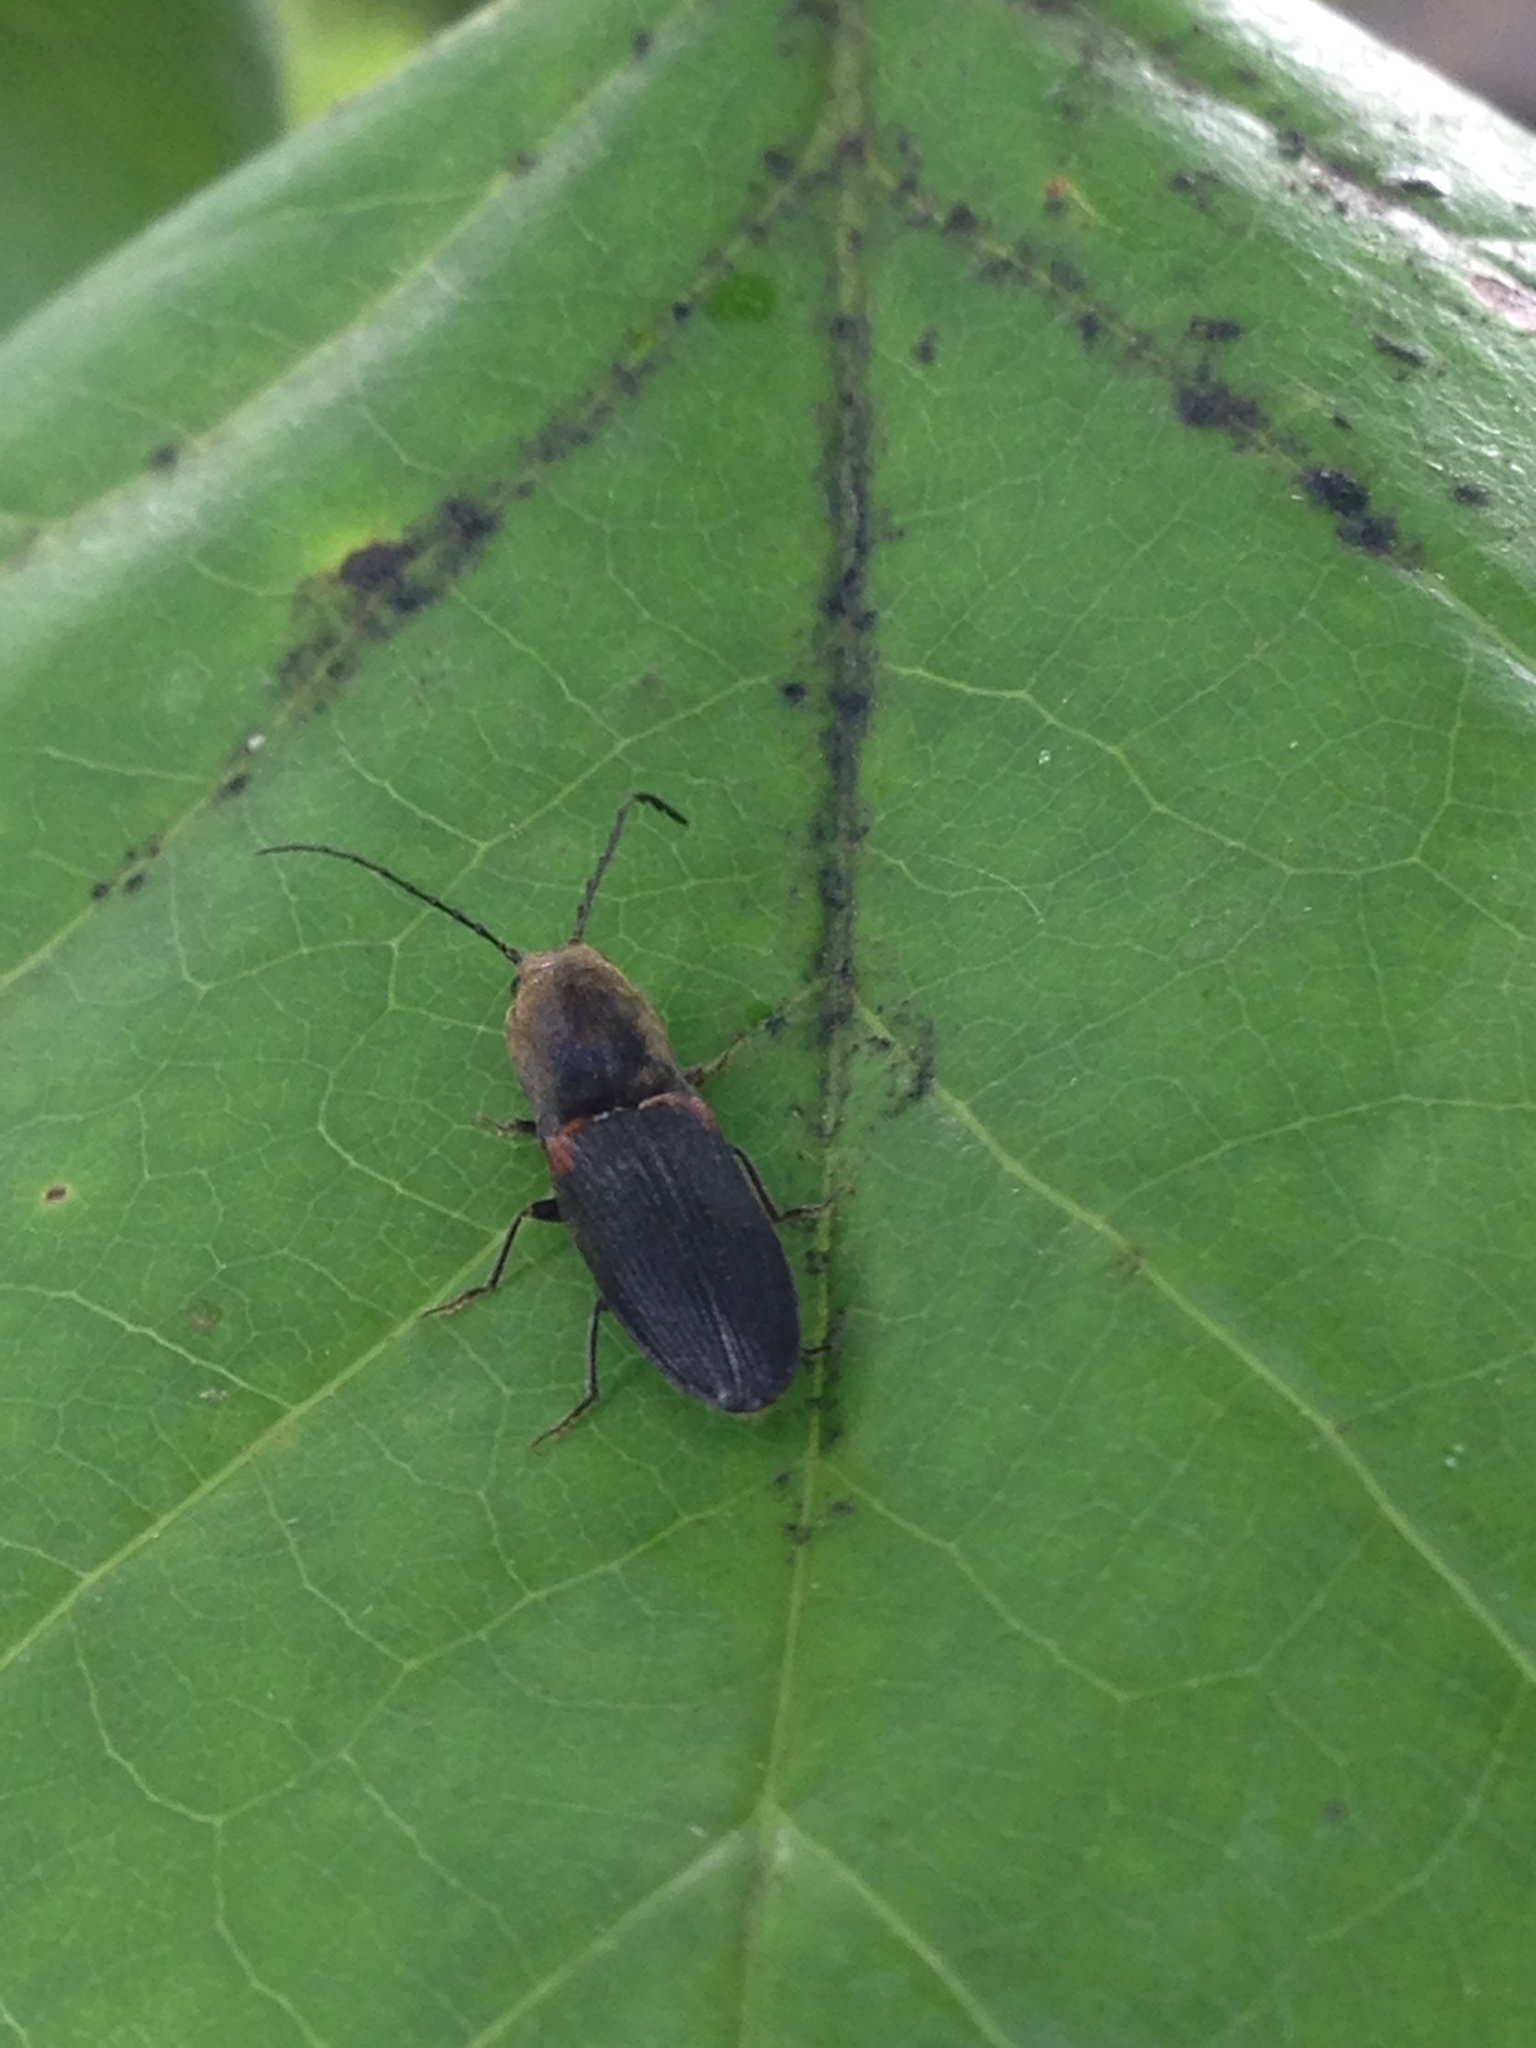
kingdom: Animalia
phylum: Arthropoda
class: Insecta
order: Coleoptera
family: Elateridae
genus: Athous
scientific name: Athous scapularis
